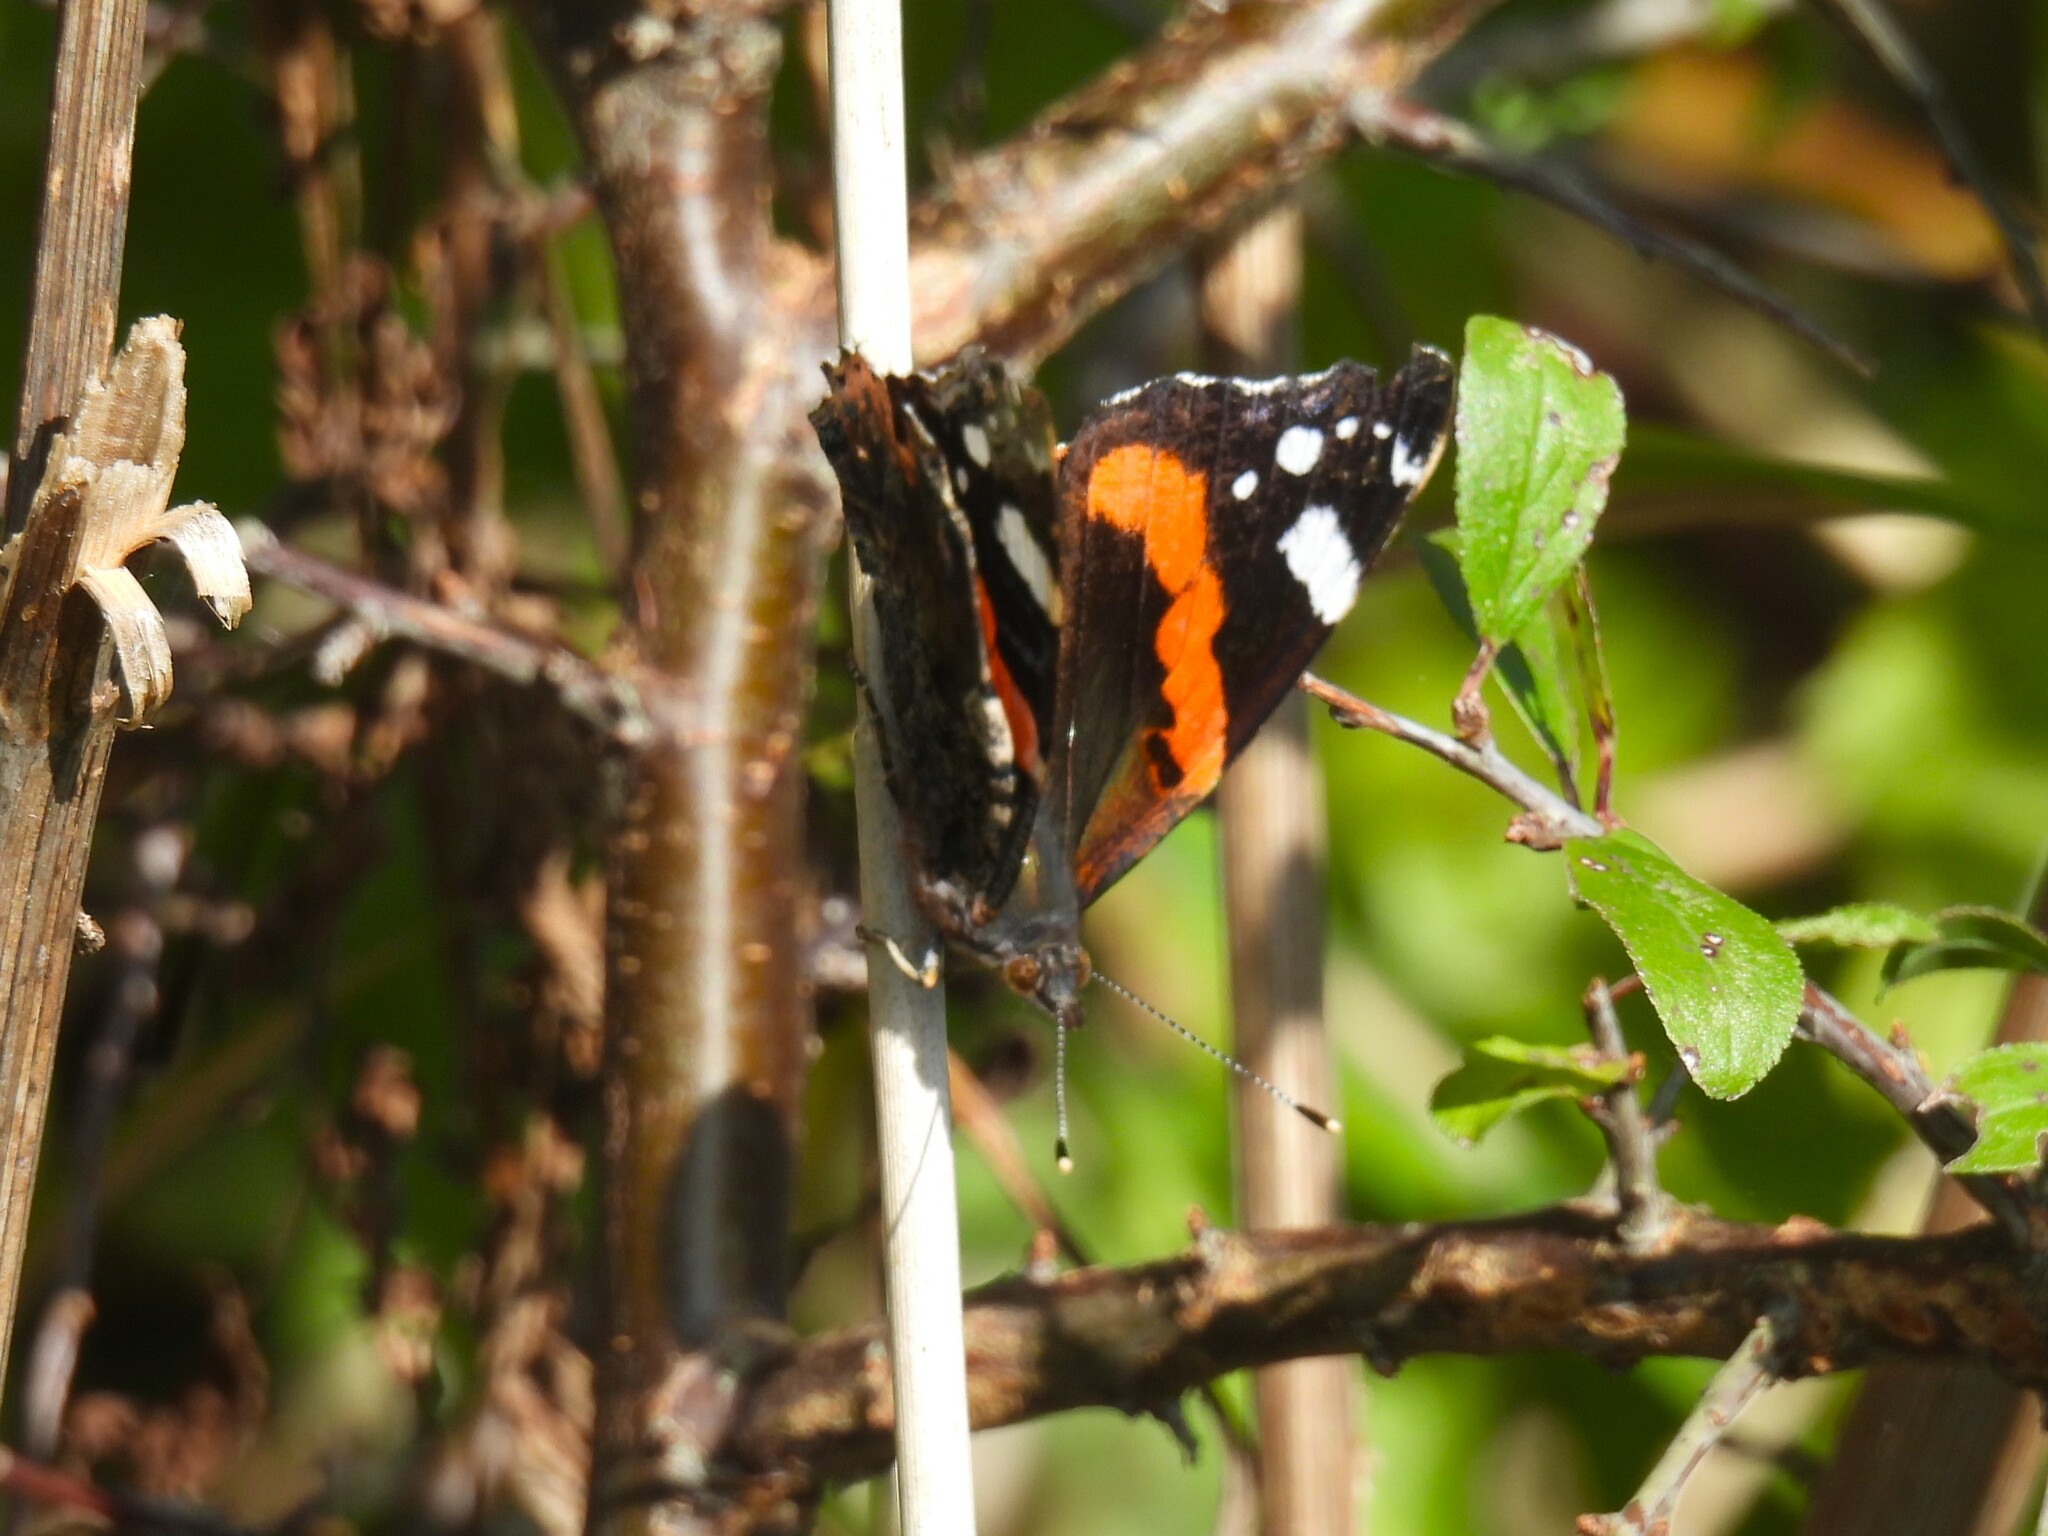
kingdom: Animalia
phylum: Arthropoda
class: Insecta
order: Lepidoptera
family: Nymphalidae
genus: Vanessa
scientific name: Vanessa atalanta
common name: Red admiral
